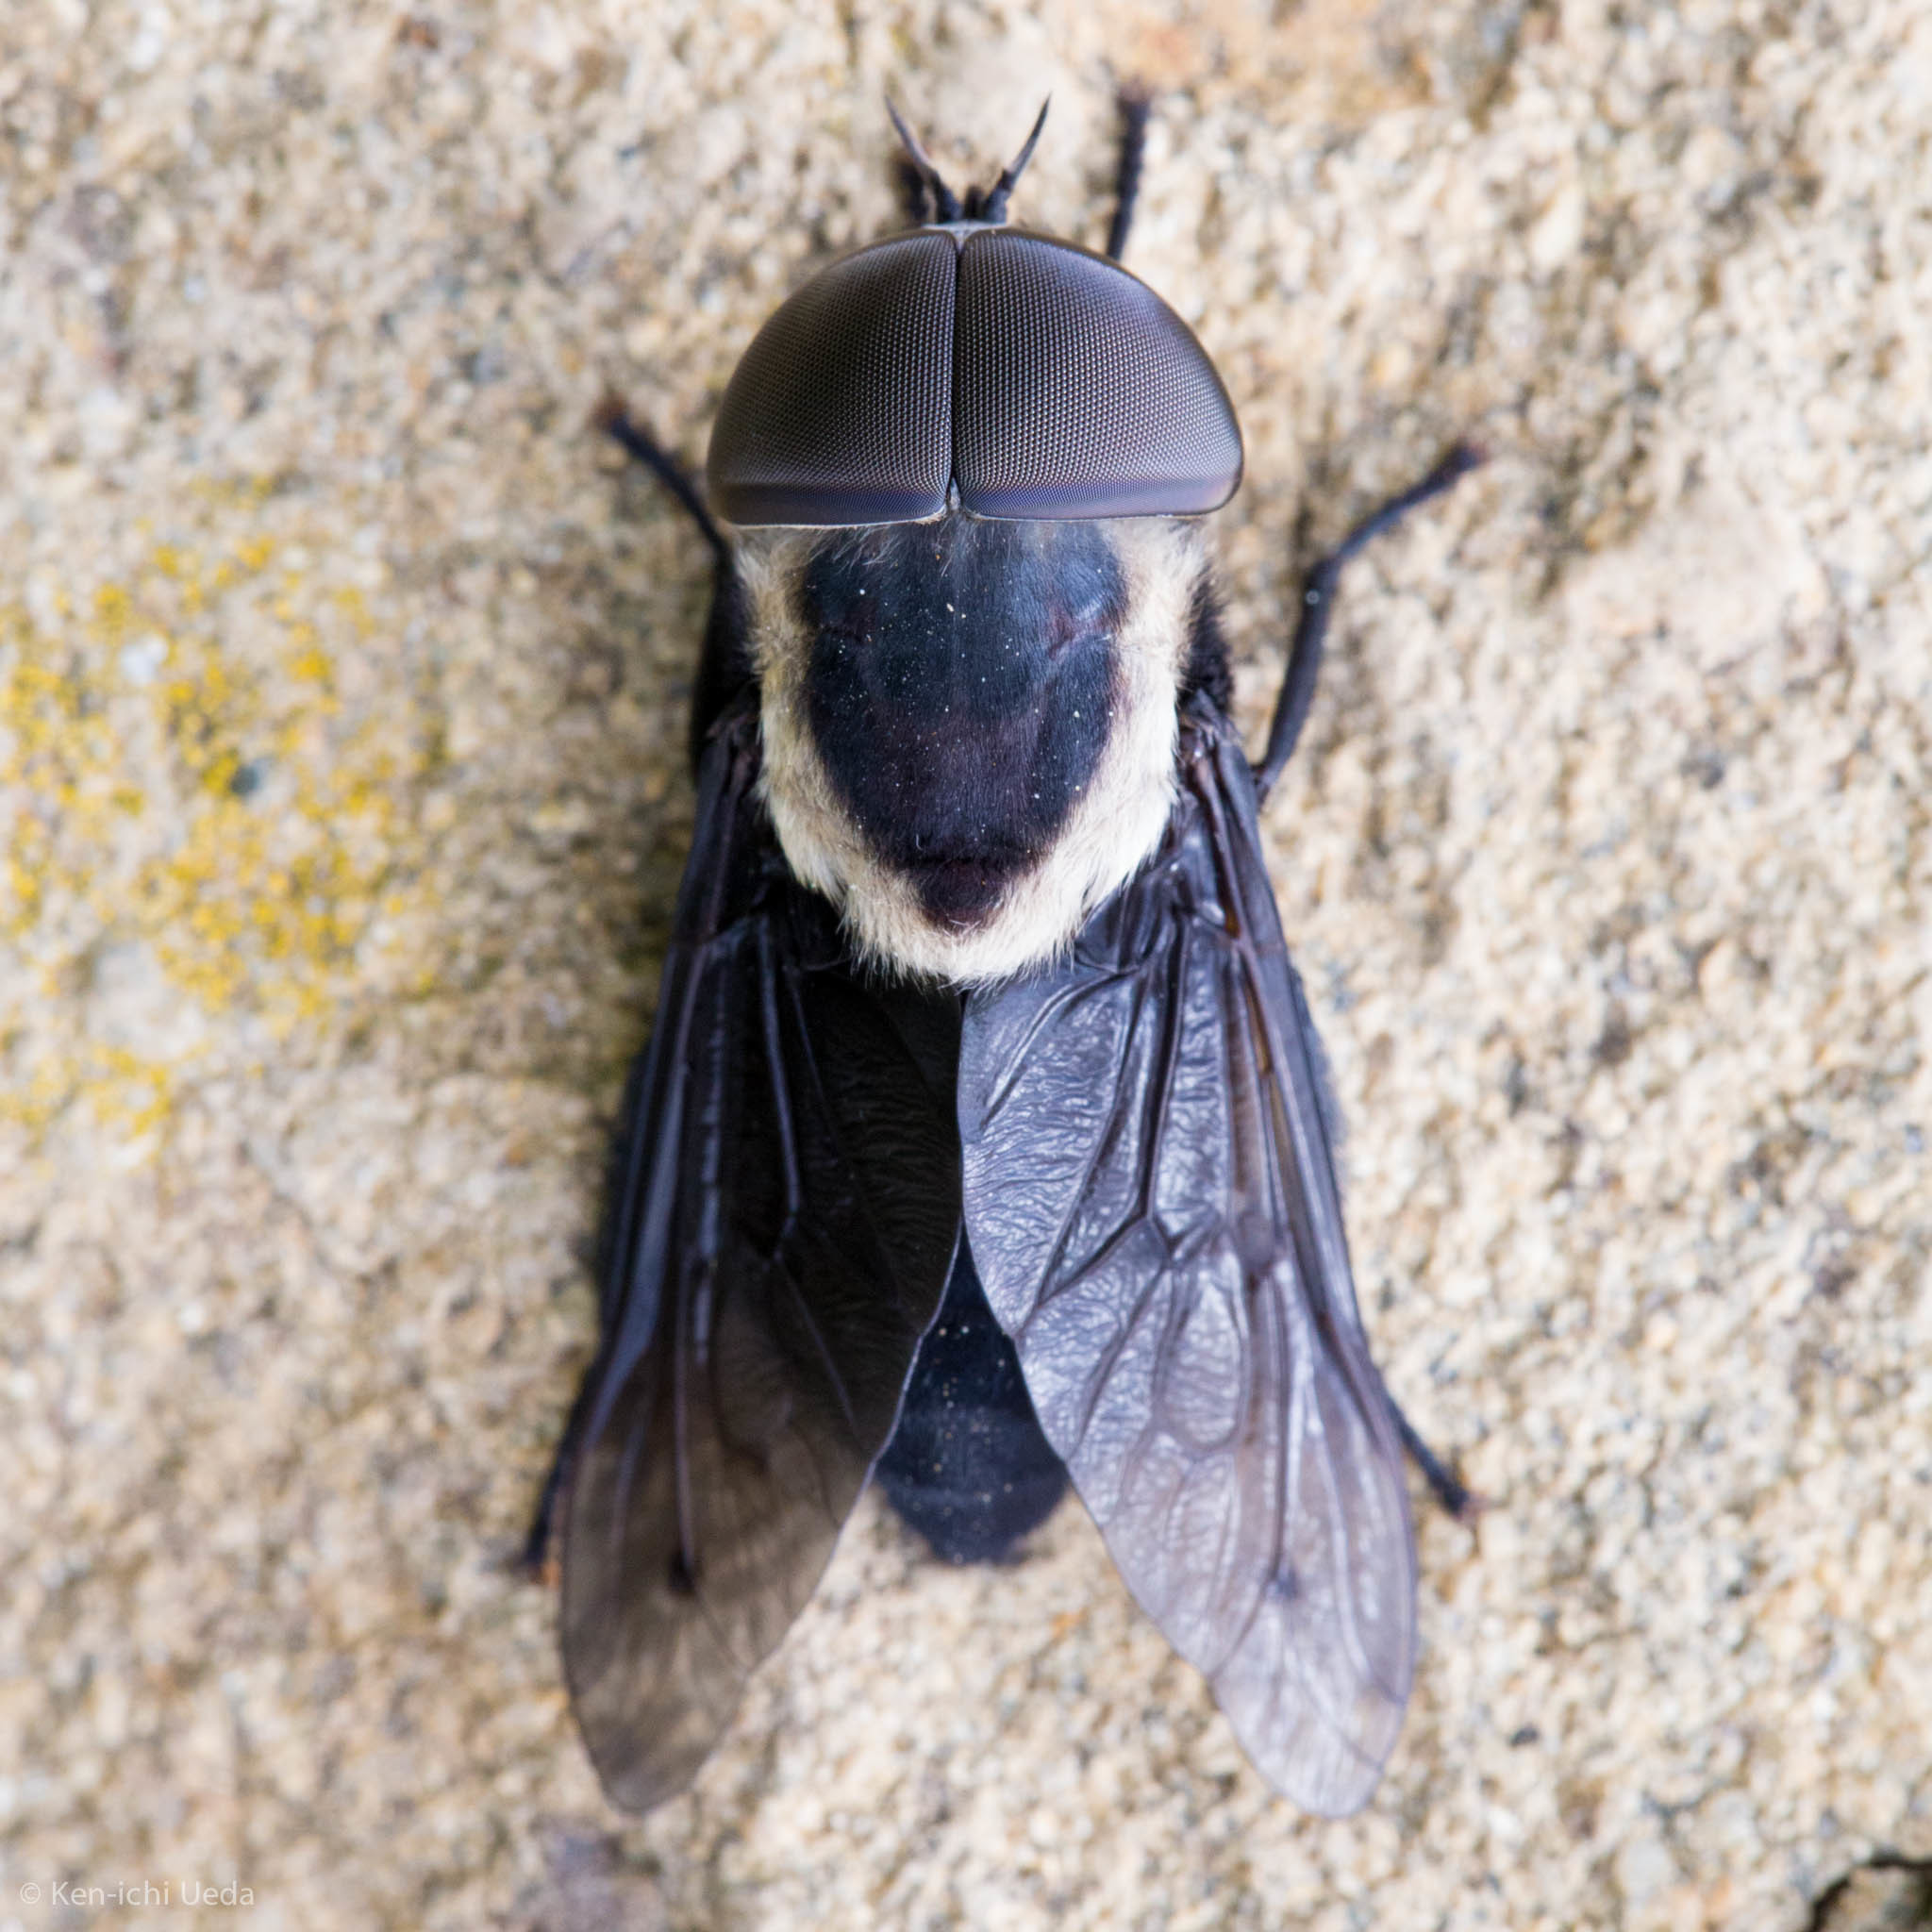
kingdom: Animalia
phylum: Arthropoda
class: Insecta
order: Diptera
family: Tabanidae
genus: Tabanus
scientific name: Tabanus punctifer
